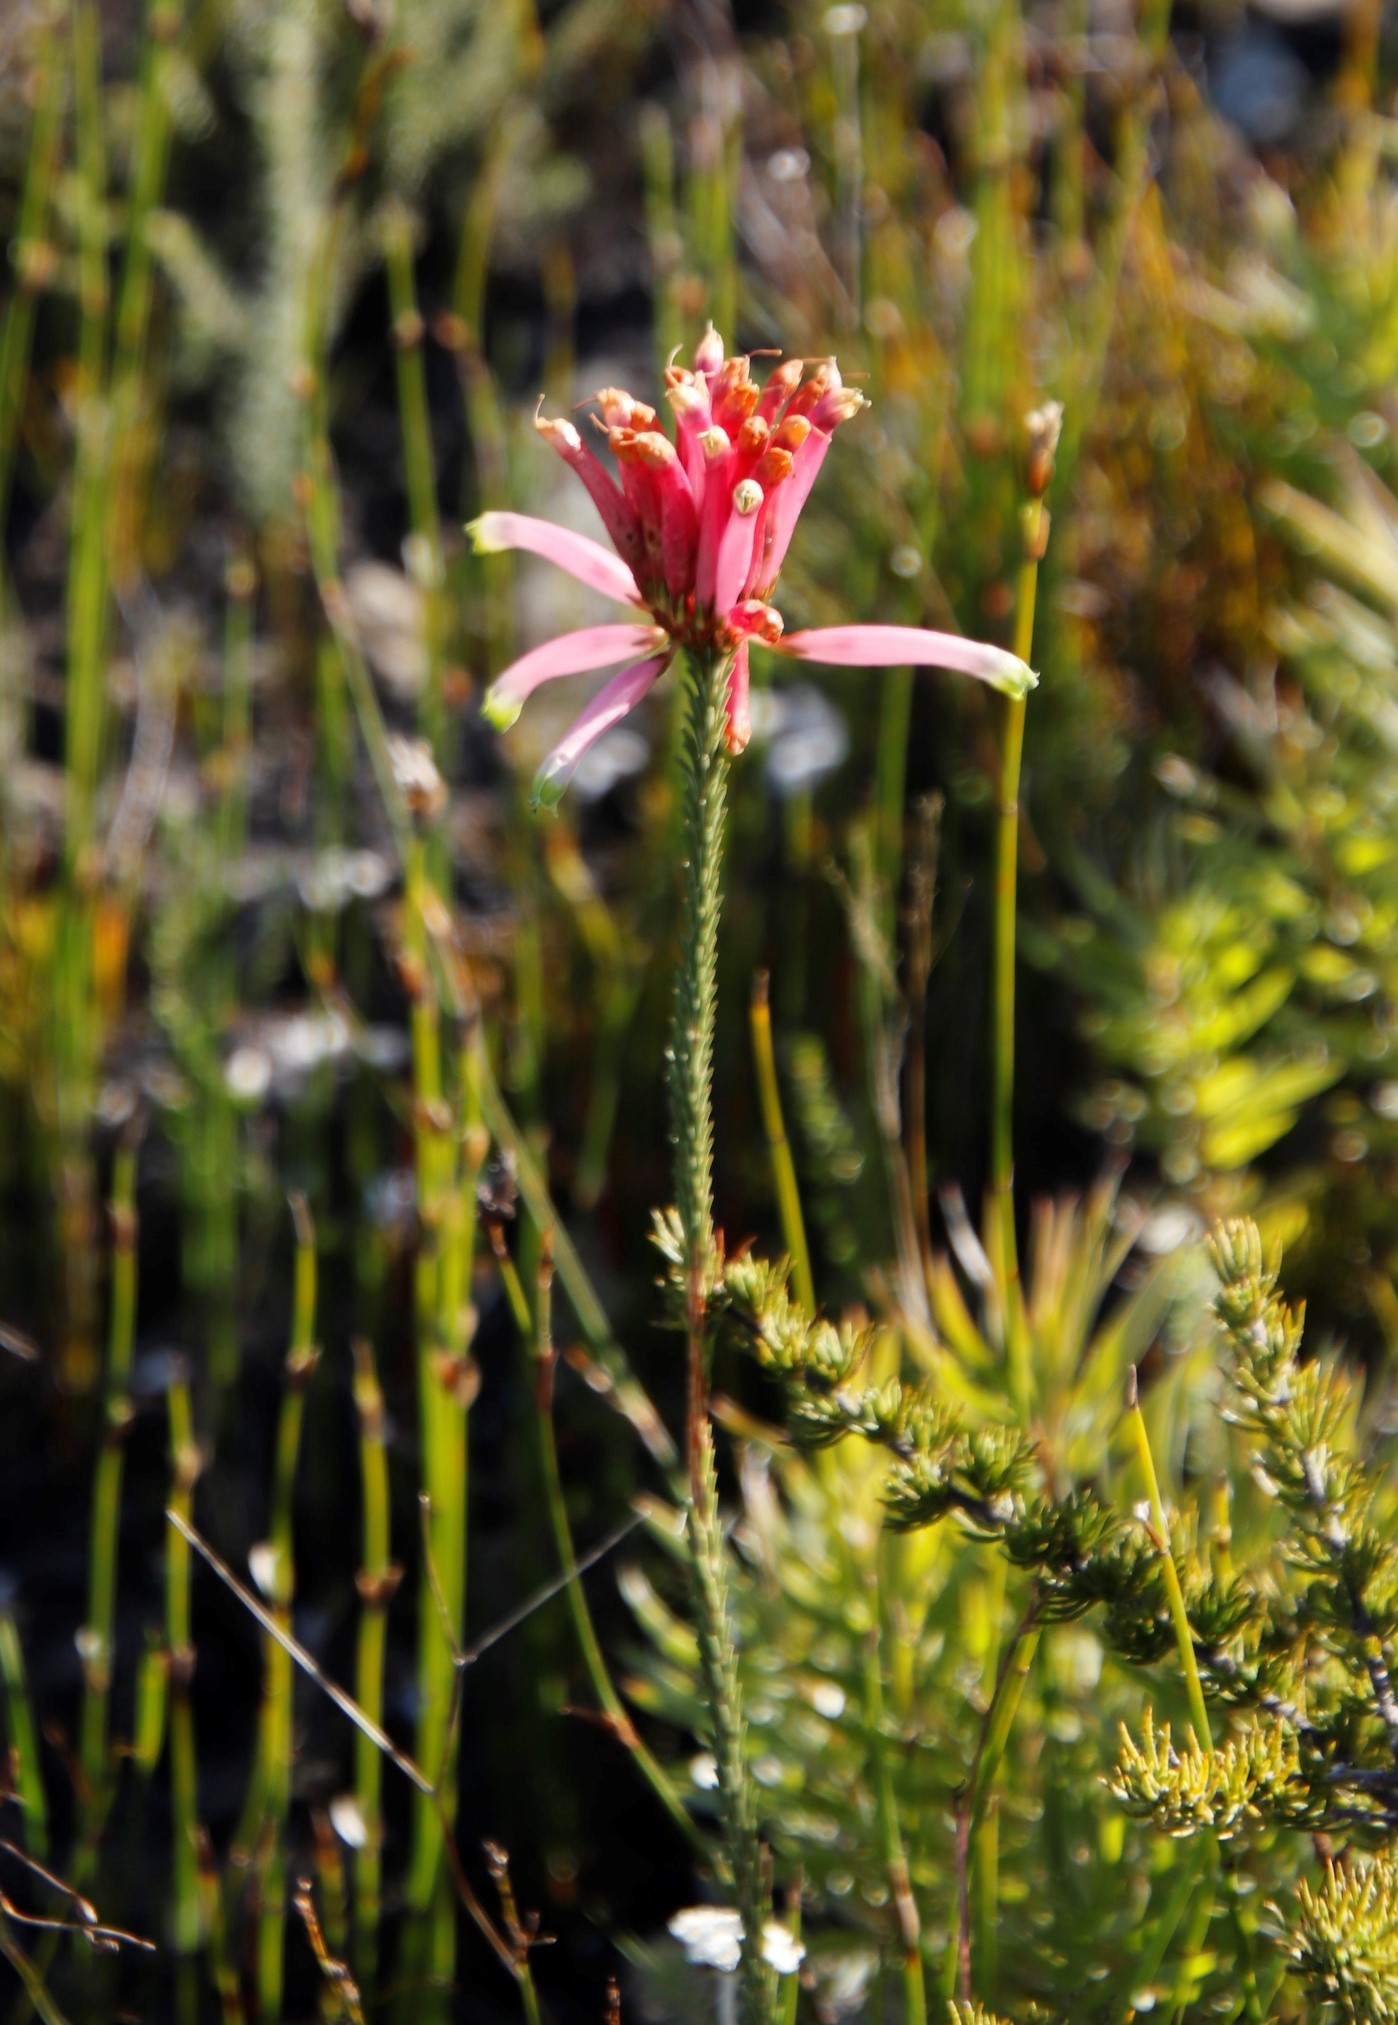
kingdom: Plantae
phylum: Tracheophyta
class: Magnoliopsida
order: Ericales
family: Ericaceae
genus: Erica
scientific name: Erica fascicularis
